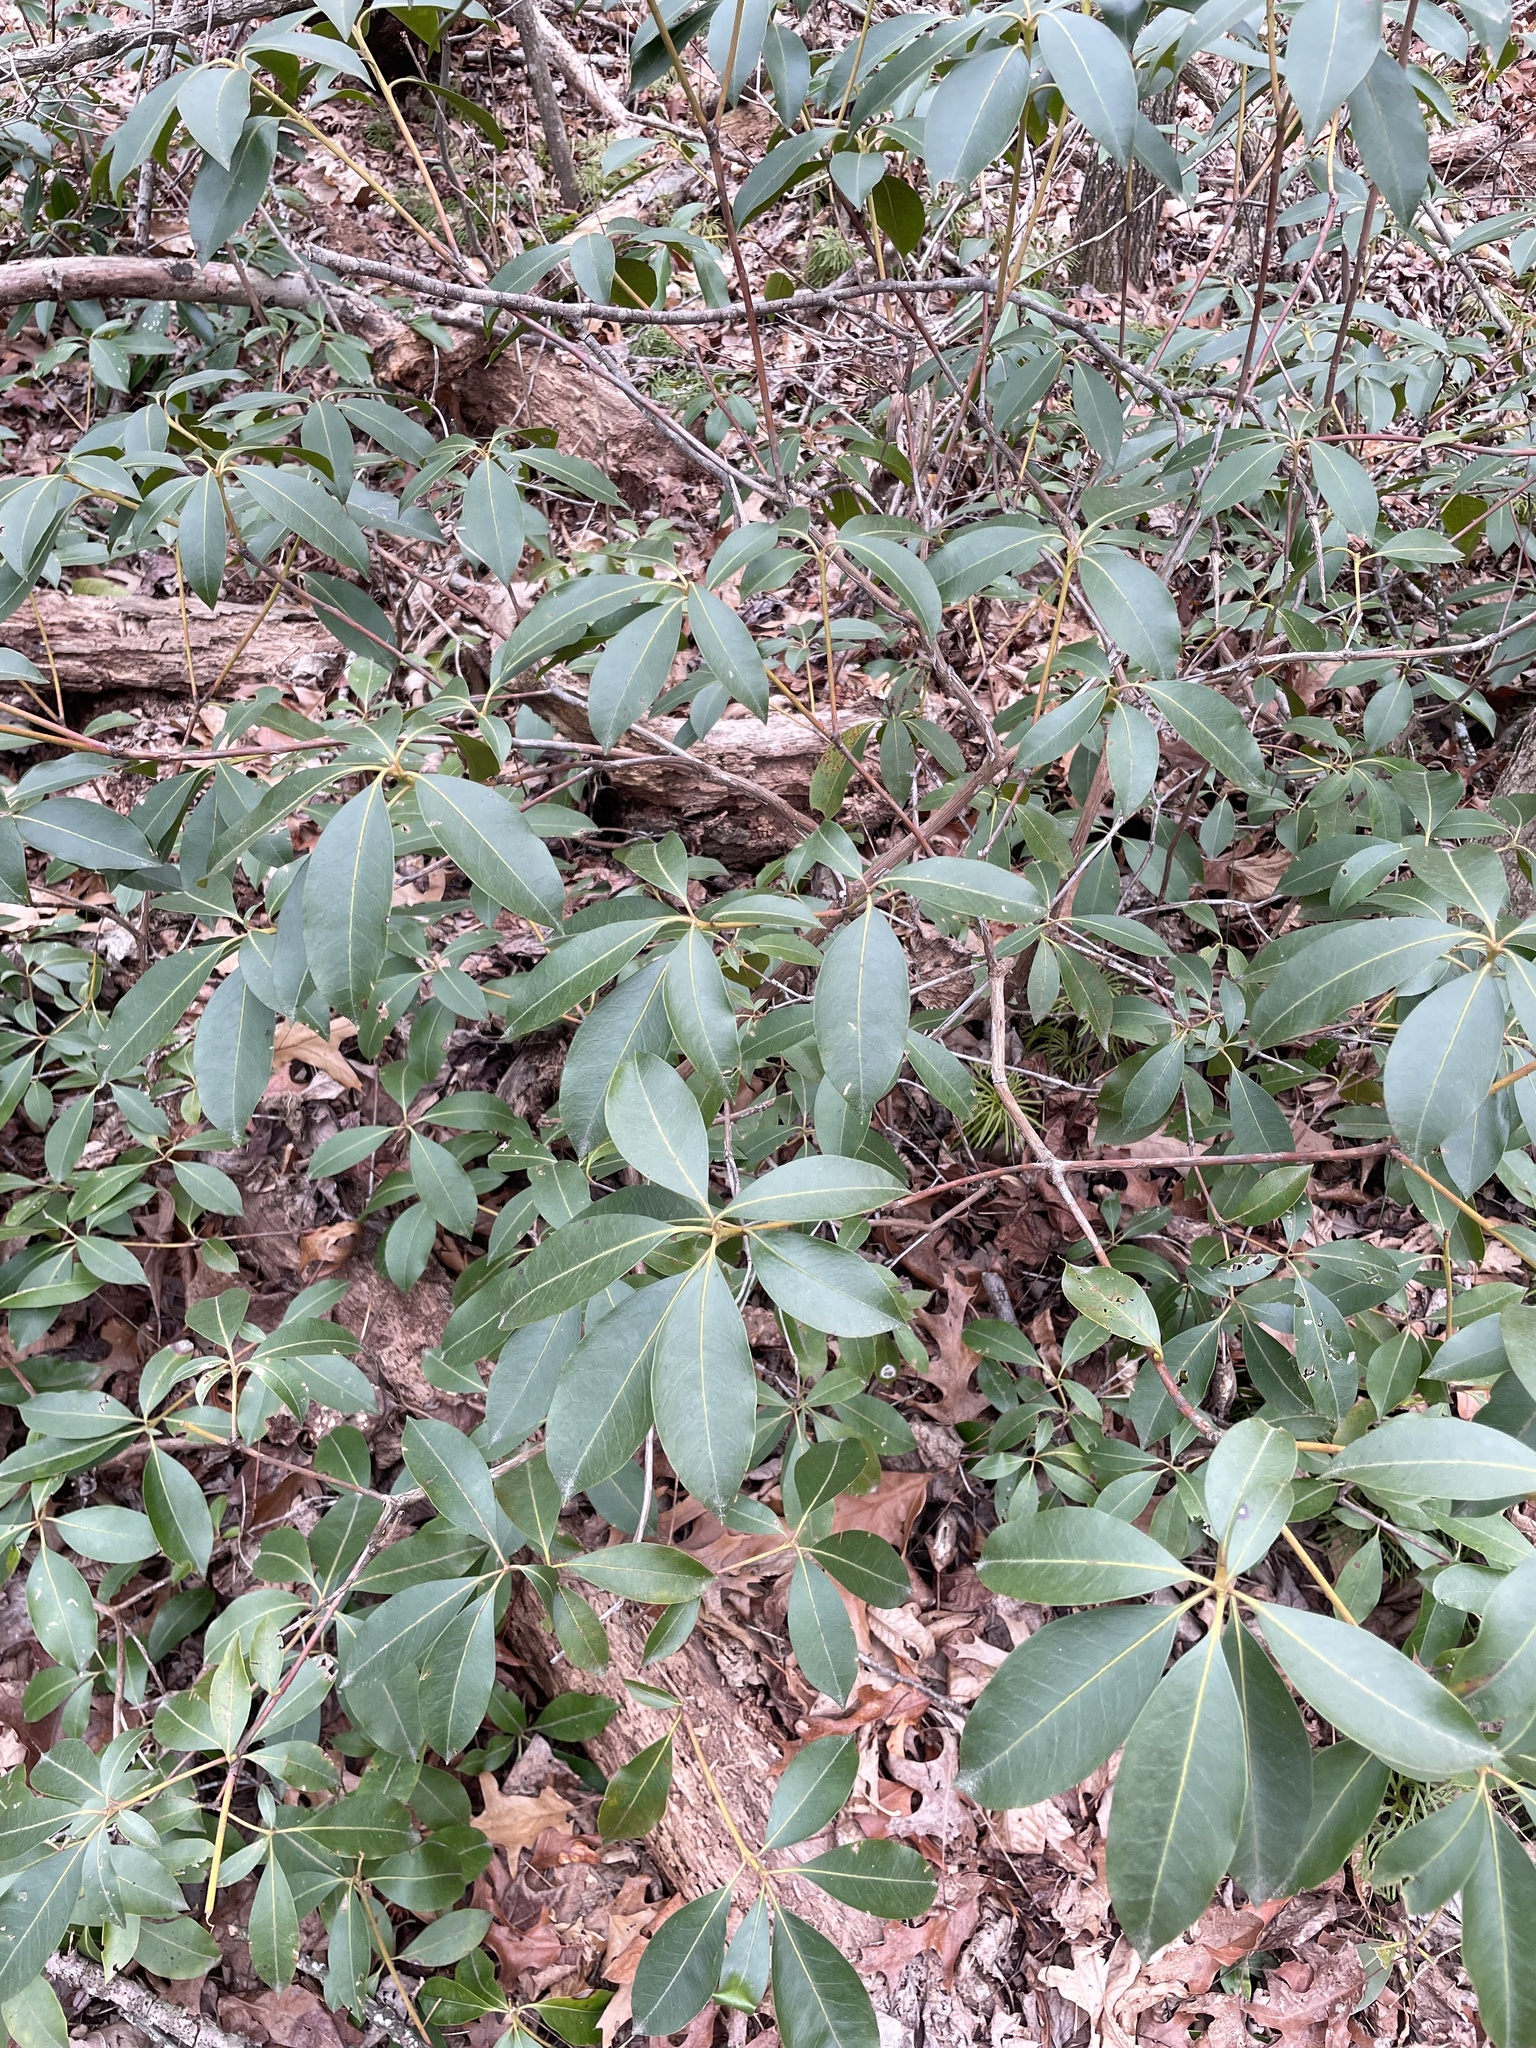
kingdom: Plantae
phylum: Tracheophyta
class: Magnoliopsida
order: Ericales
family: Ericaceae
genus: Kalmia
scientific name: Kalmia latifolia
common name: Mountain-laurel
